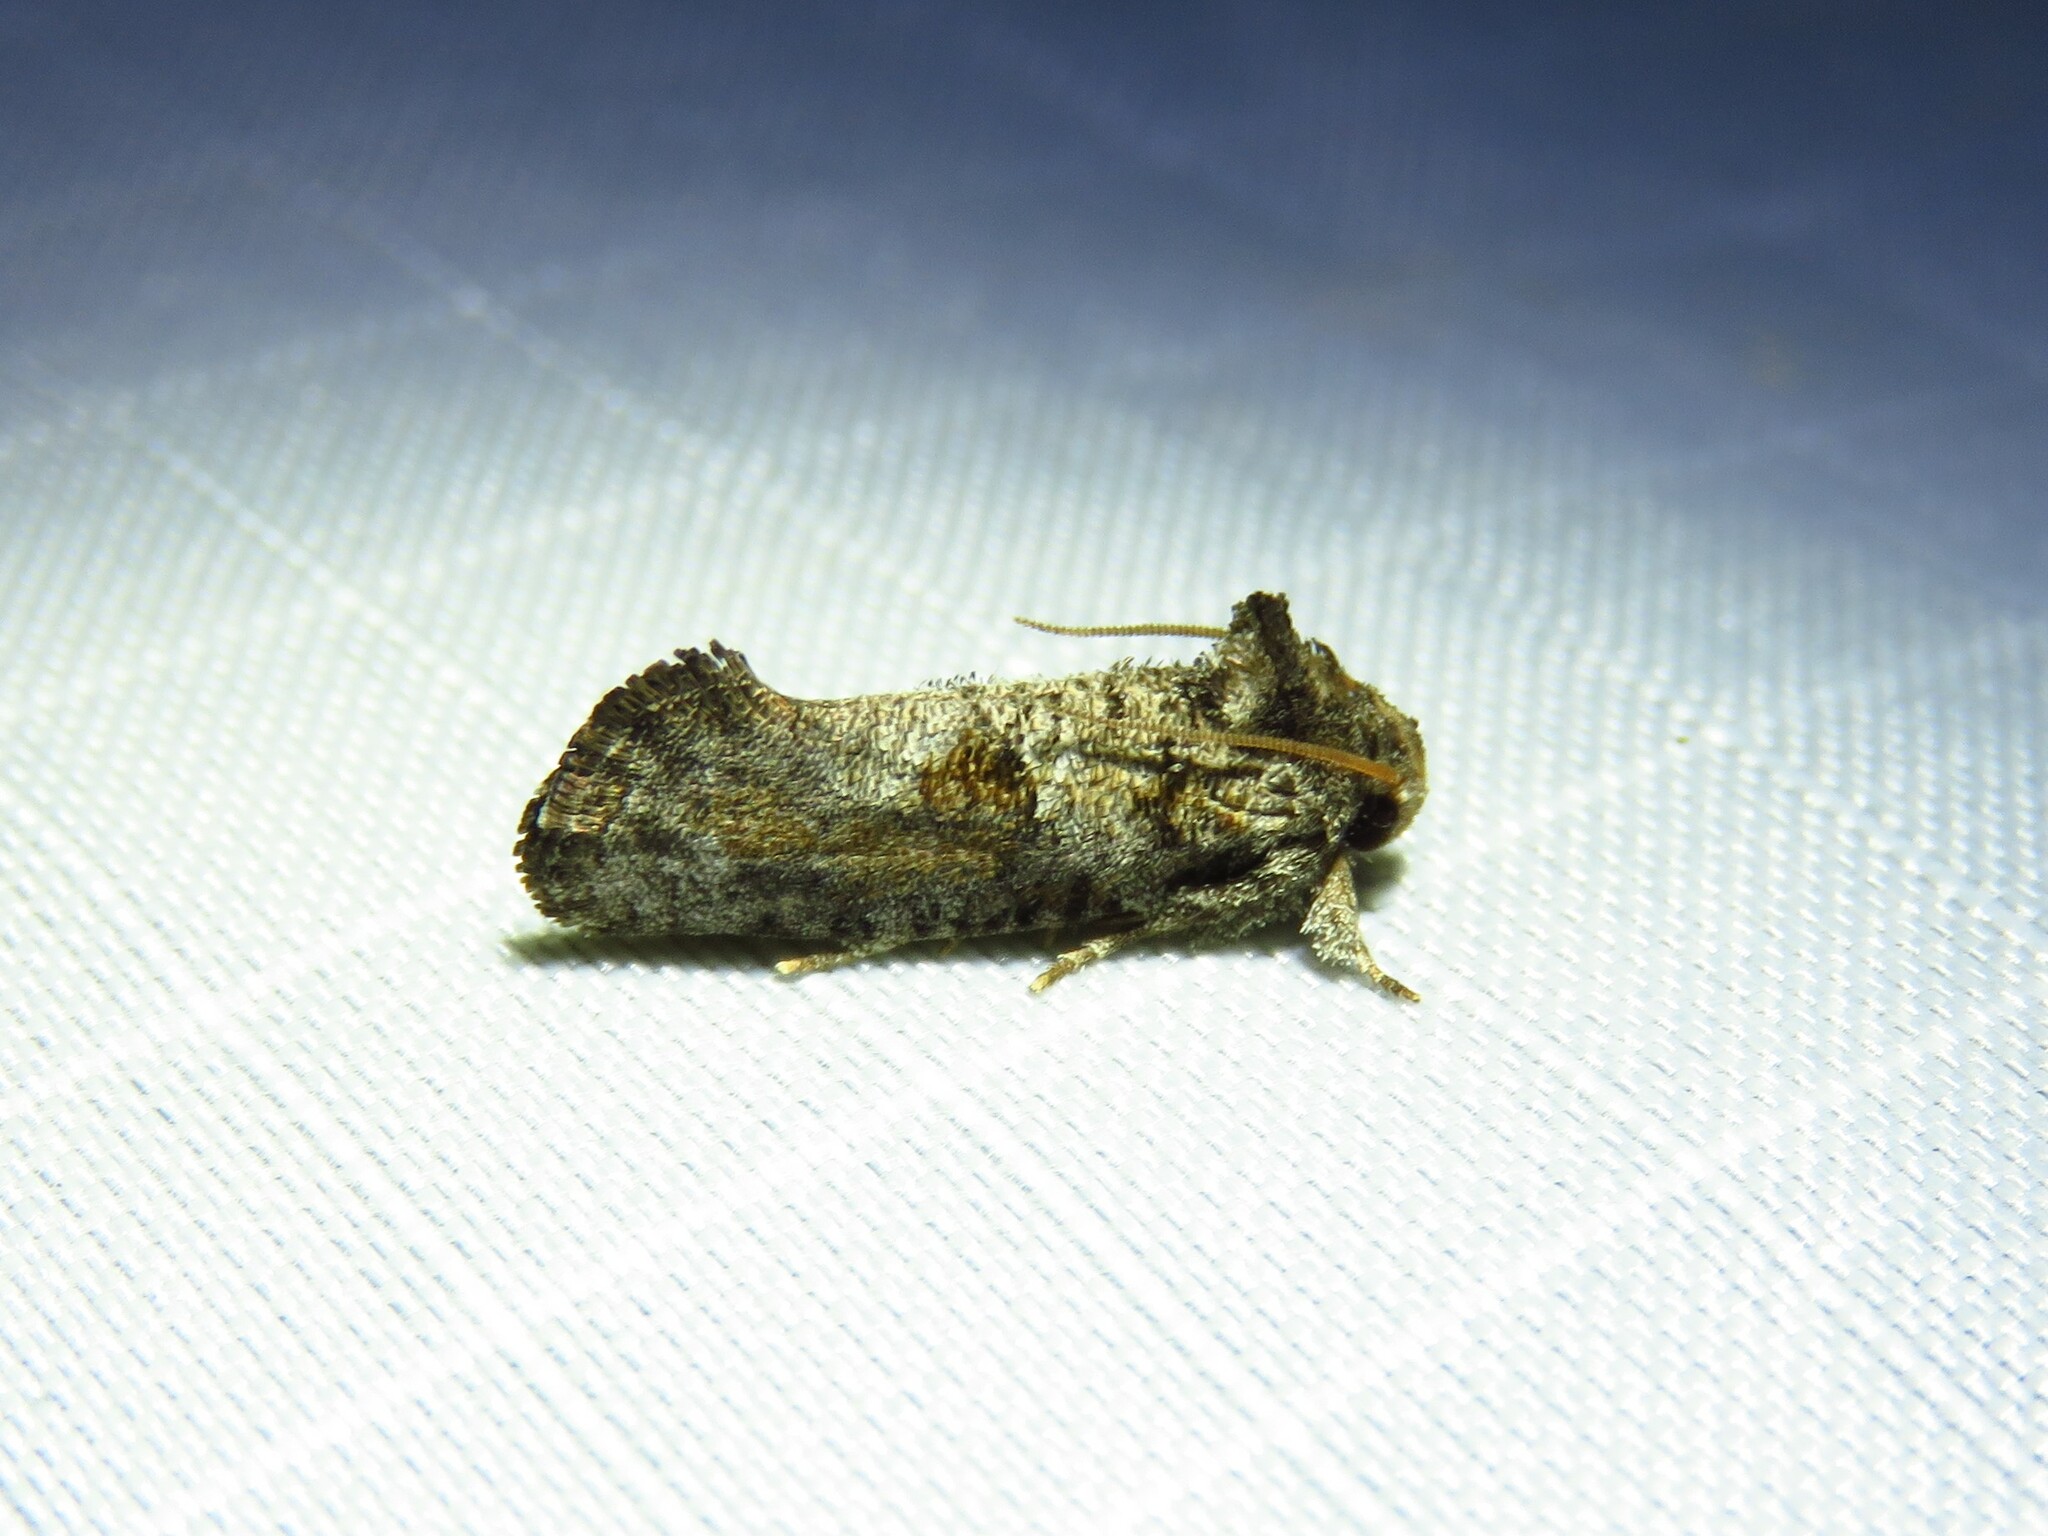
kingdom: Animalia
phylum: Arthropoda
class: Insecta
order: Lepidoptera
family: Tineidae
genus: Acrolophus
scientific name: Acrolophus piger
